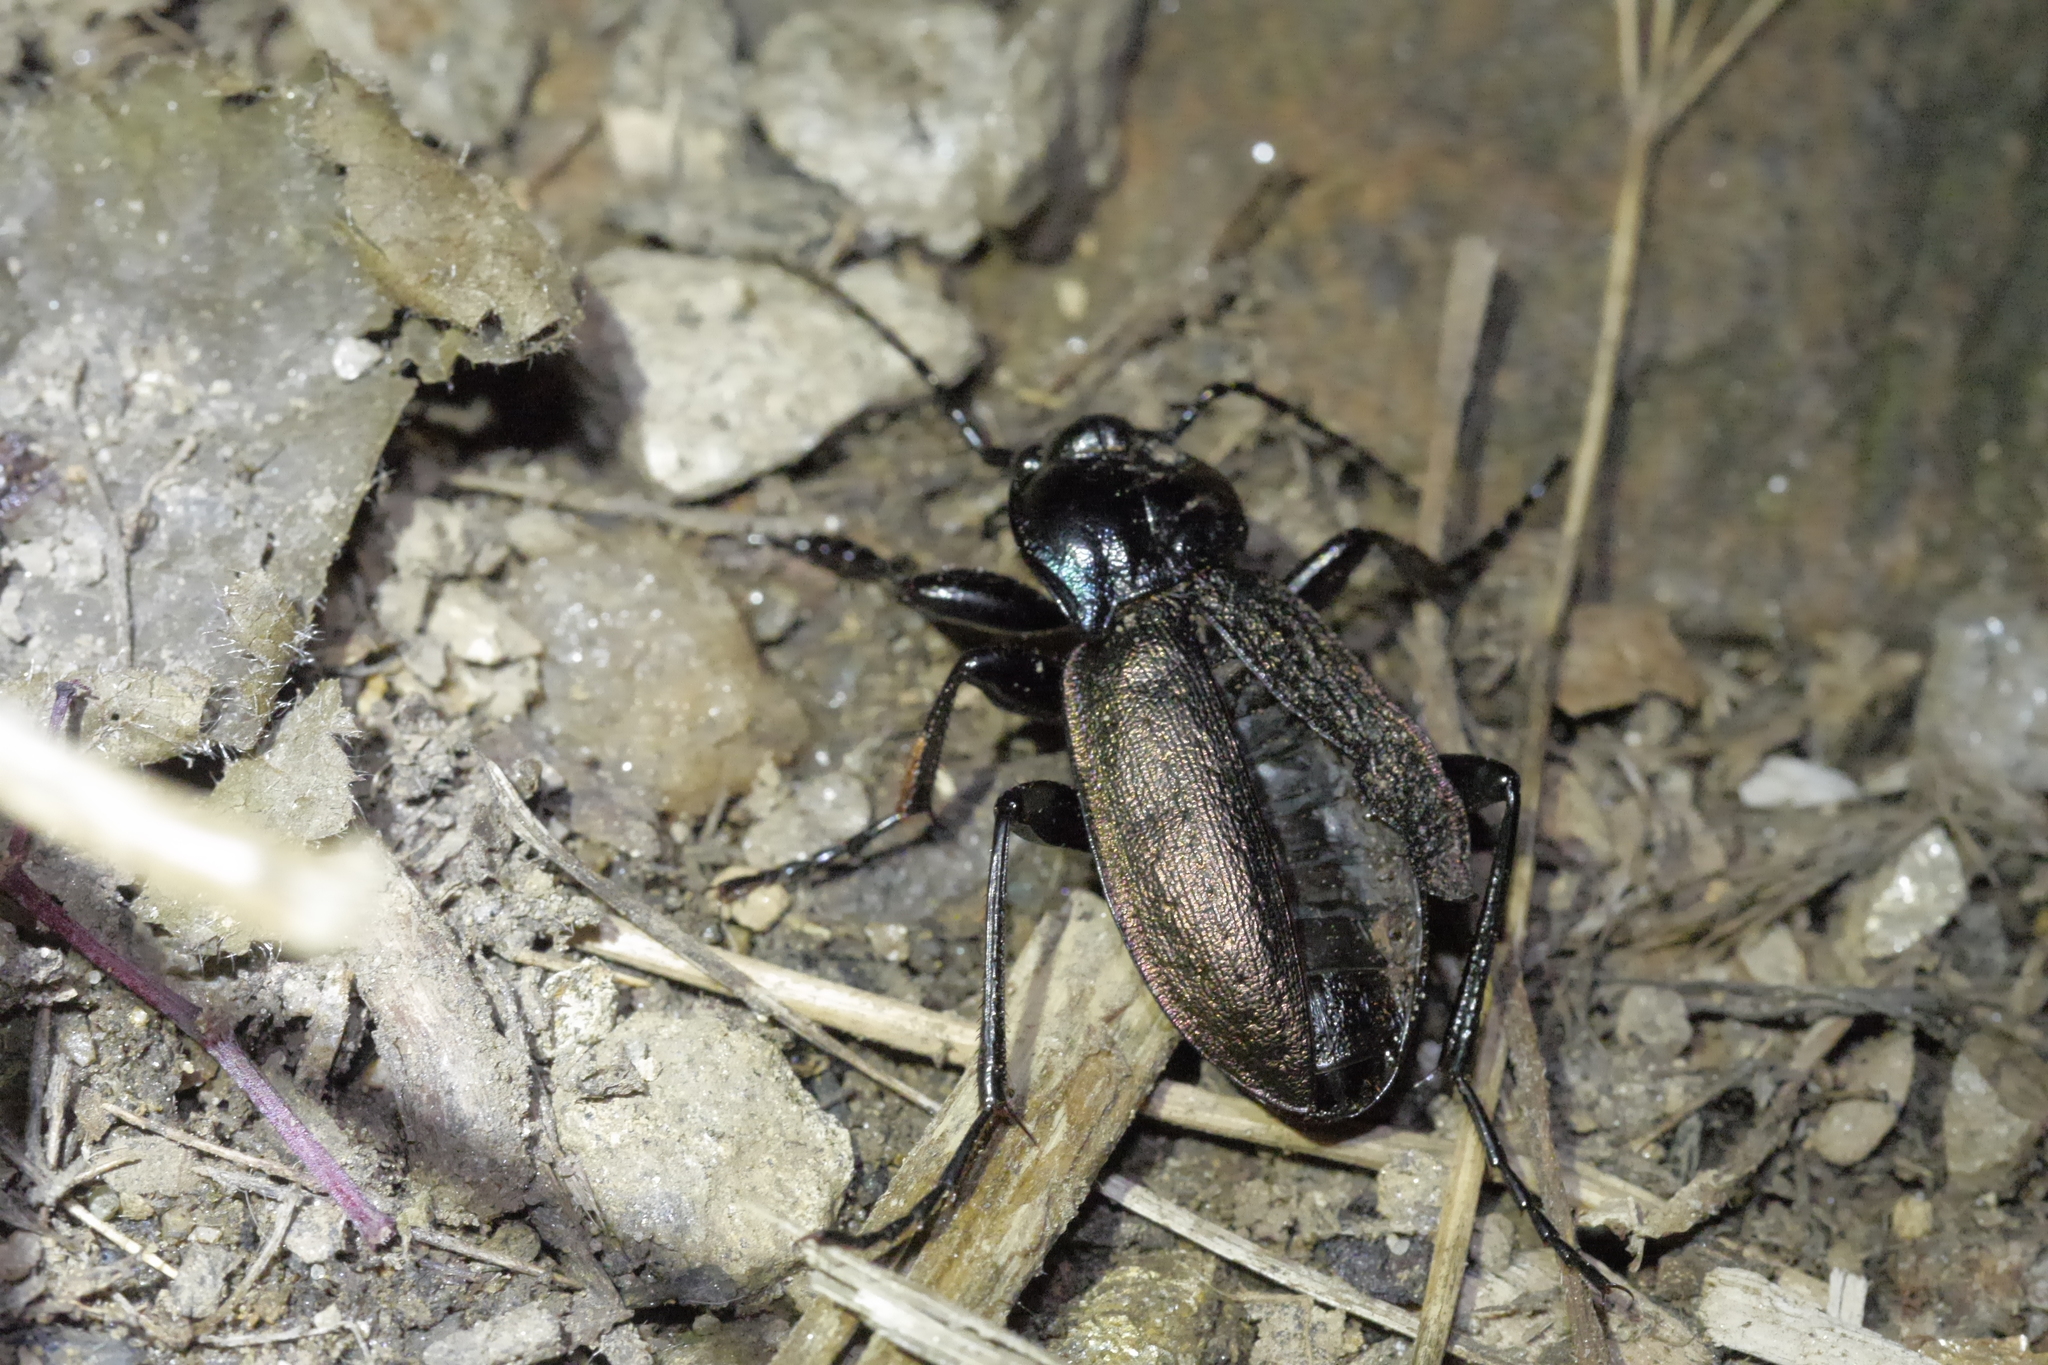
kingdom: Animalia
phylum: Arthropoda
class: Insecta
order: Coleoptera
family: Carabidae
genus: Carabus
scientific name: Carabus nemoralis
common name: European ground beetle
